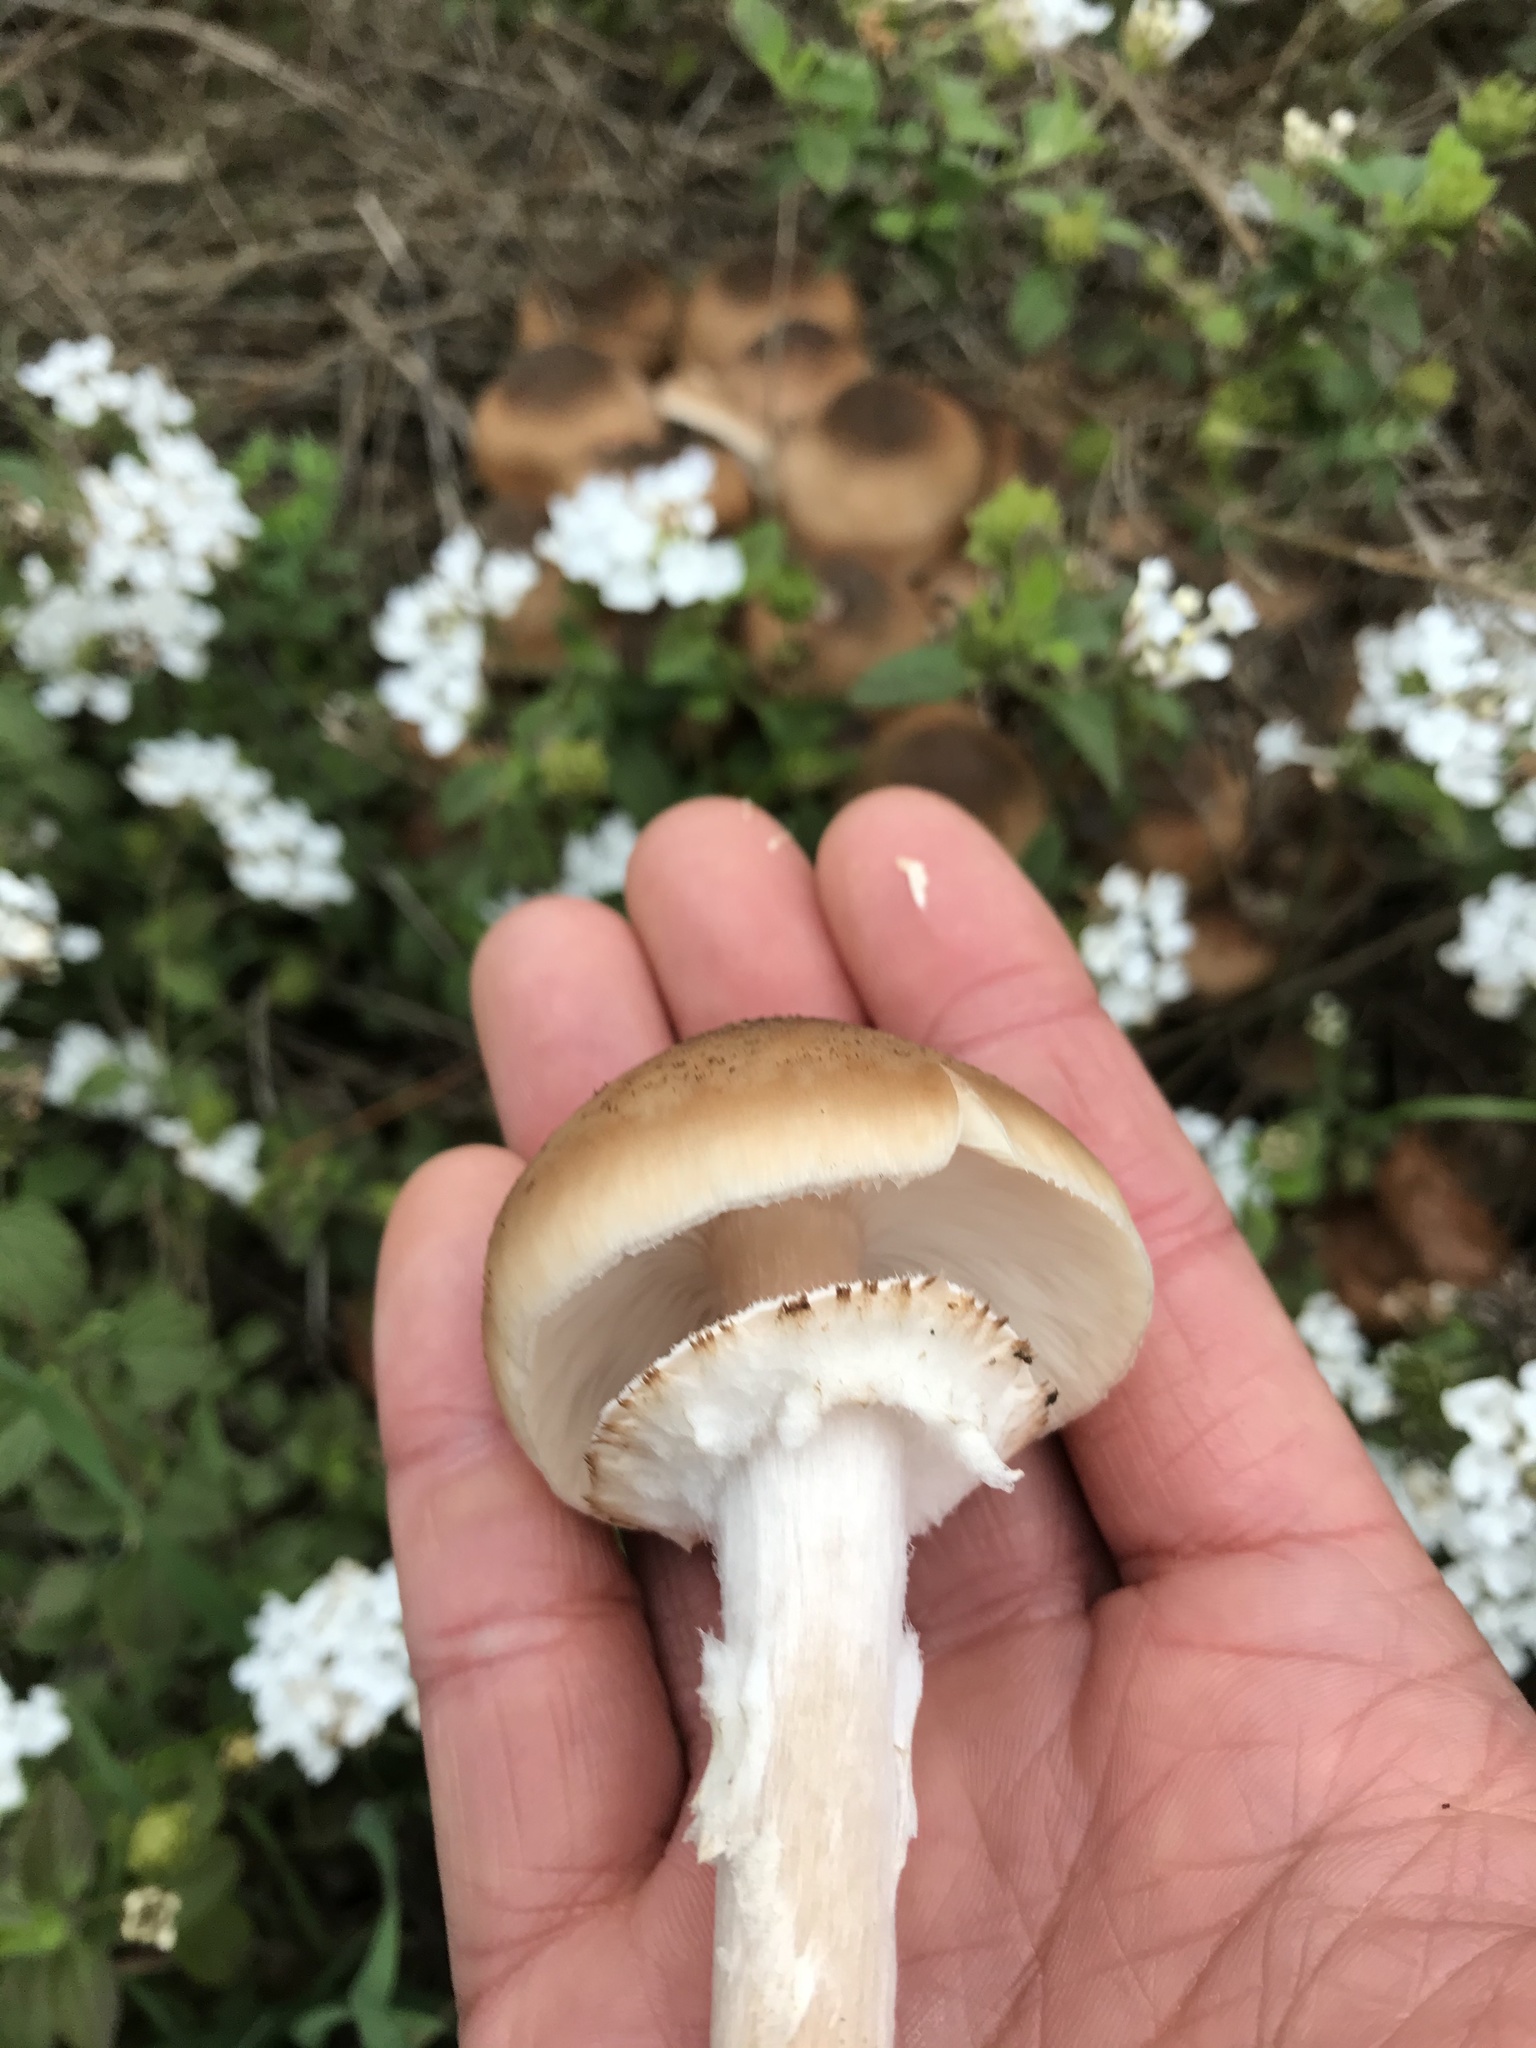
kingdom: Fungi
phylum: Basidiomycota
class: Agaricomycetes
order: Agaricales
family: Physalacriaceae
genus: Armillaria
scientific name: Armillaria mellea
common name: Honey fungus
